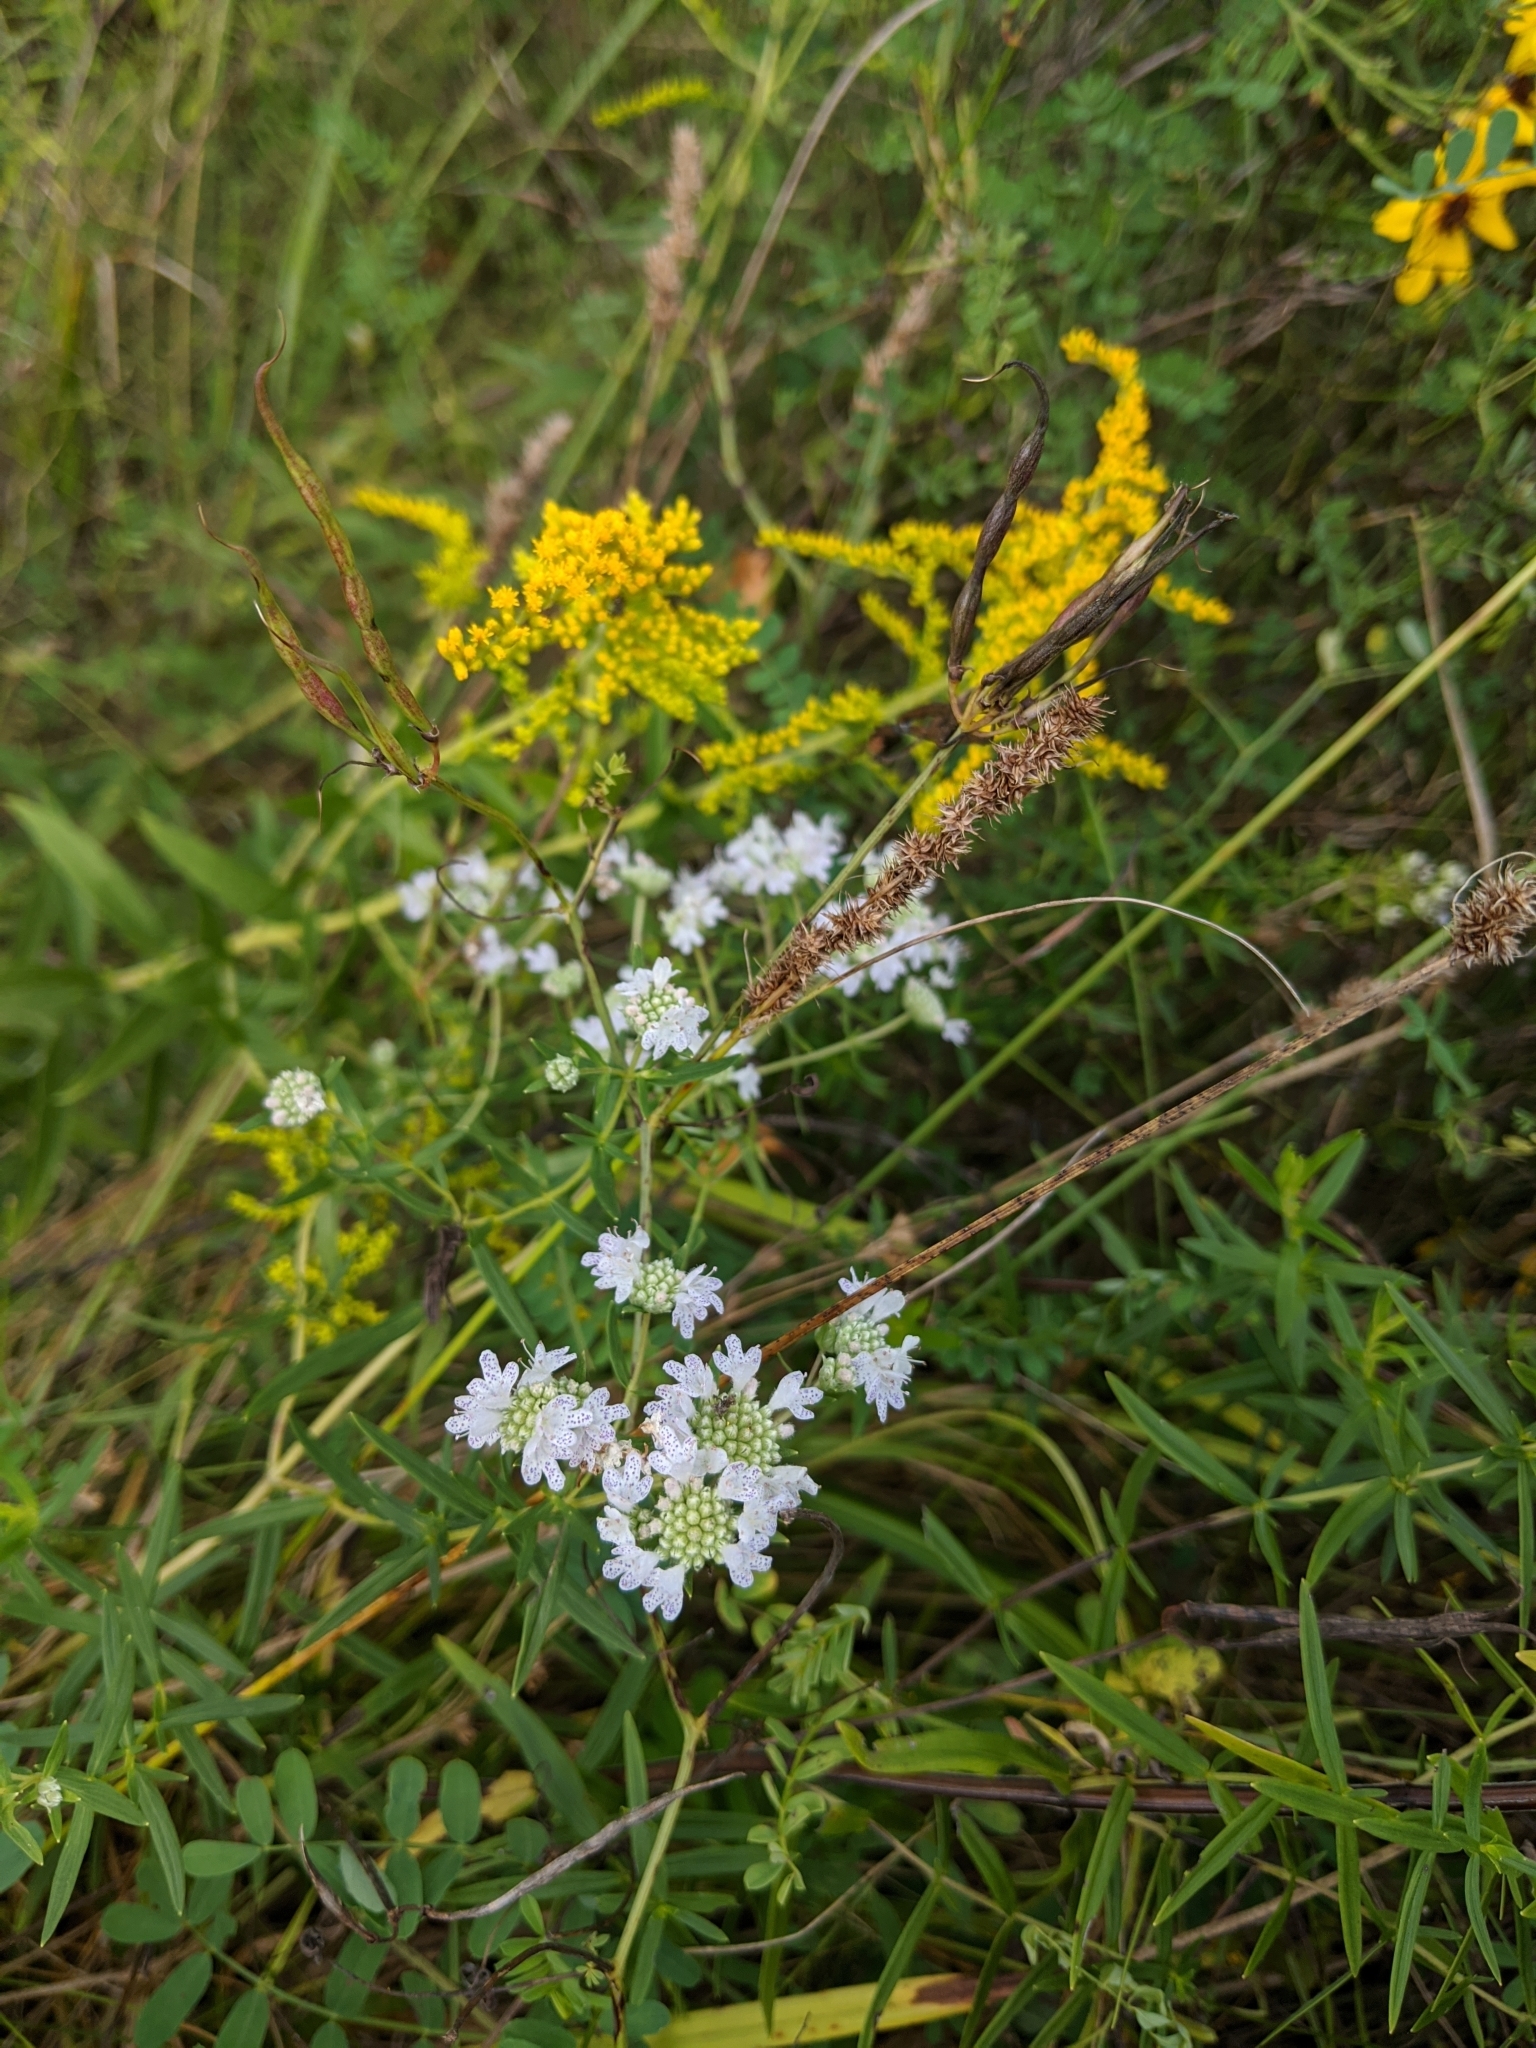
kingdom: Plantae
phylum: Tracheophyta
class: Magnoliopsida
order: Lamiales
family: Lamiaceae
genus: Pycnanthemum
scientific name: Pycnanthemum virginianum
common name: Virginia mountain-mint
